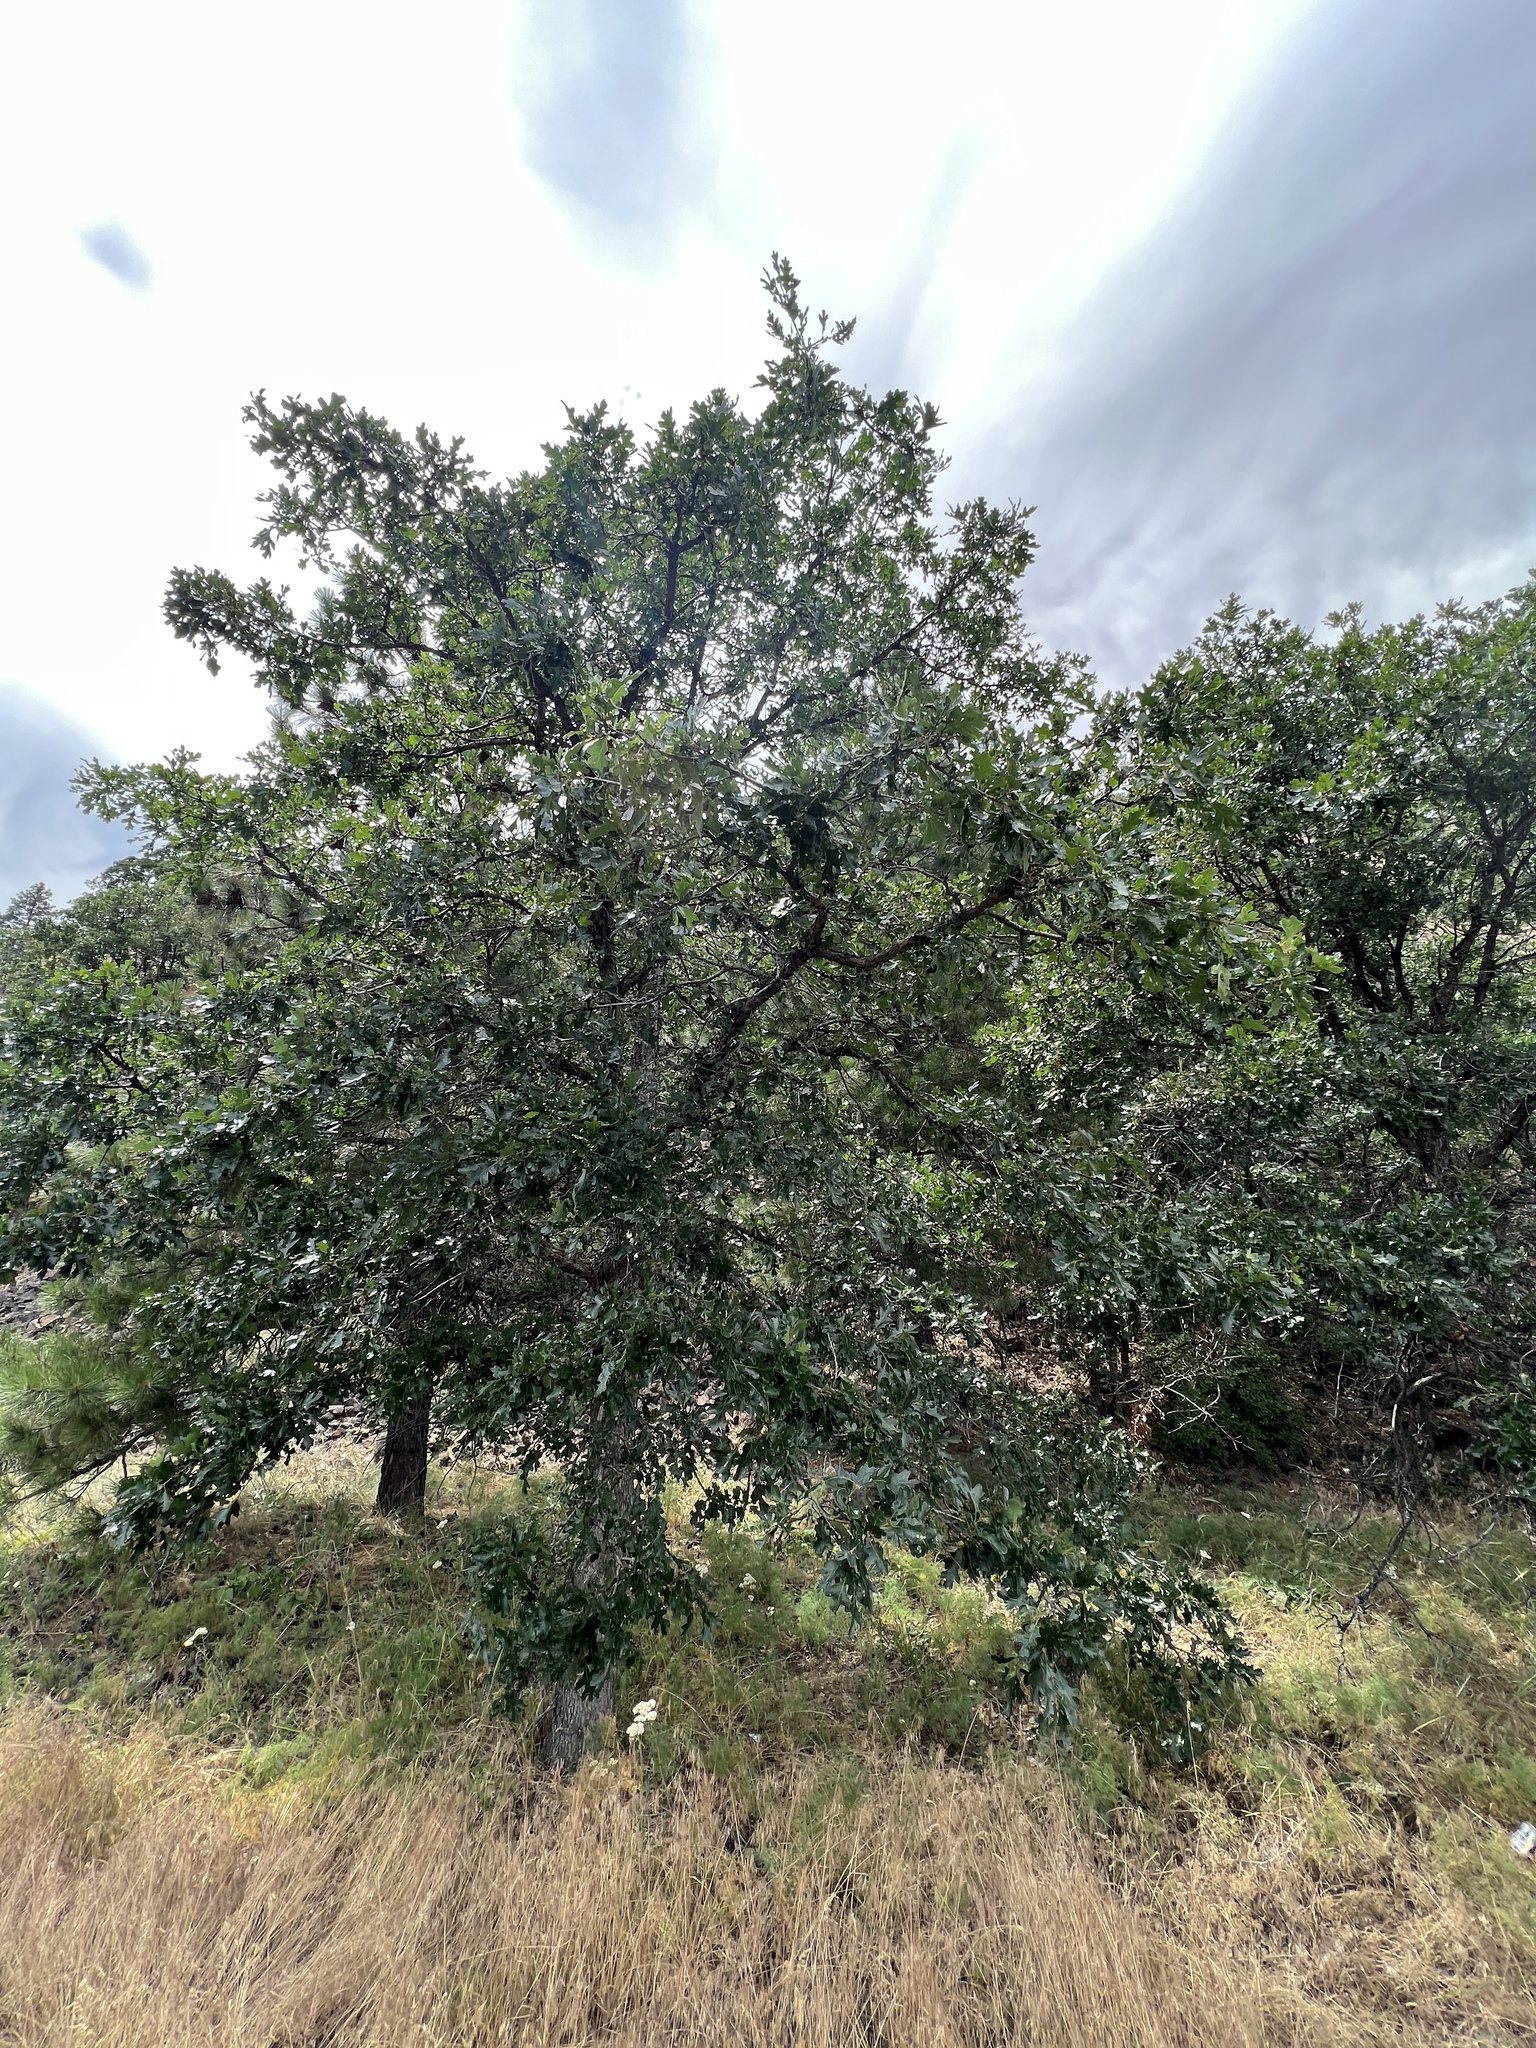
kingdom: Plantae
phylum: Tracheophyta
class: Magnoliopsida
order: Fagales
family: Fagaceae
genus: Quercus
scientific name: Quercus garryana
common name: Garry oak
